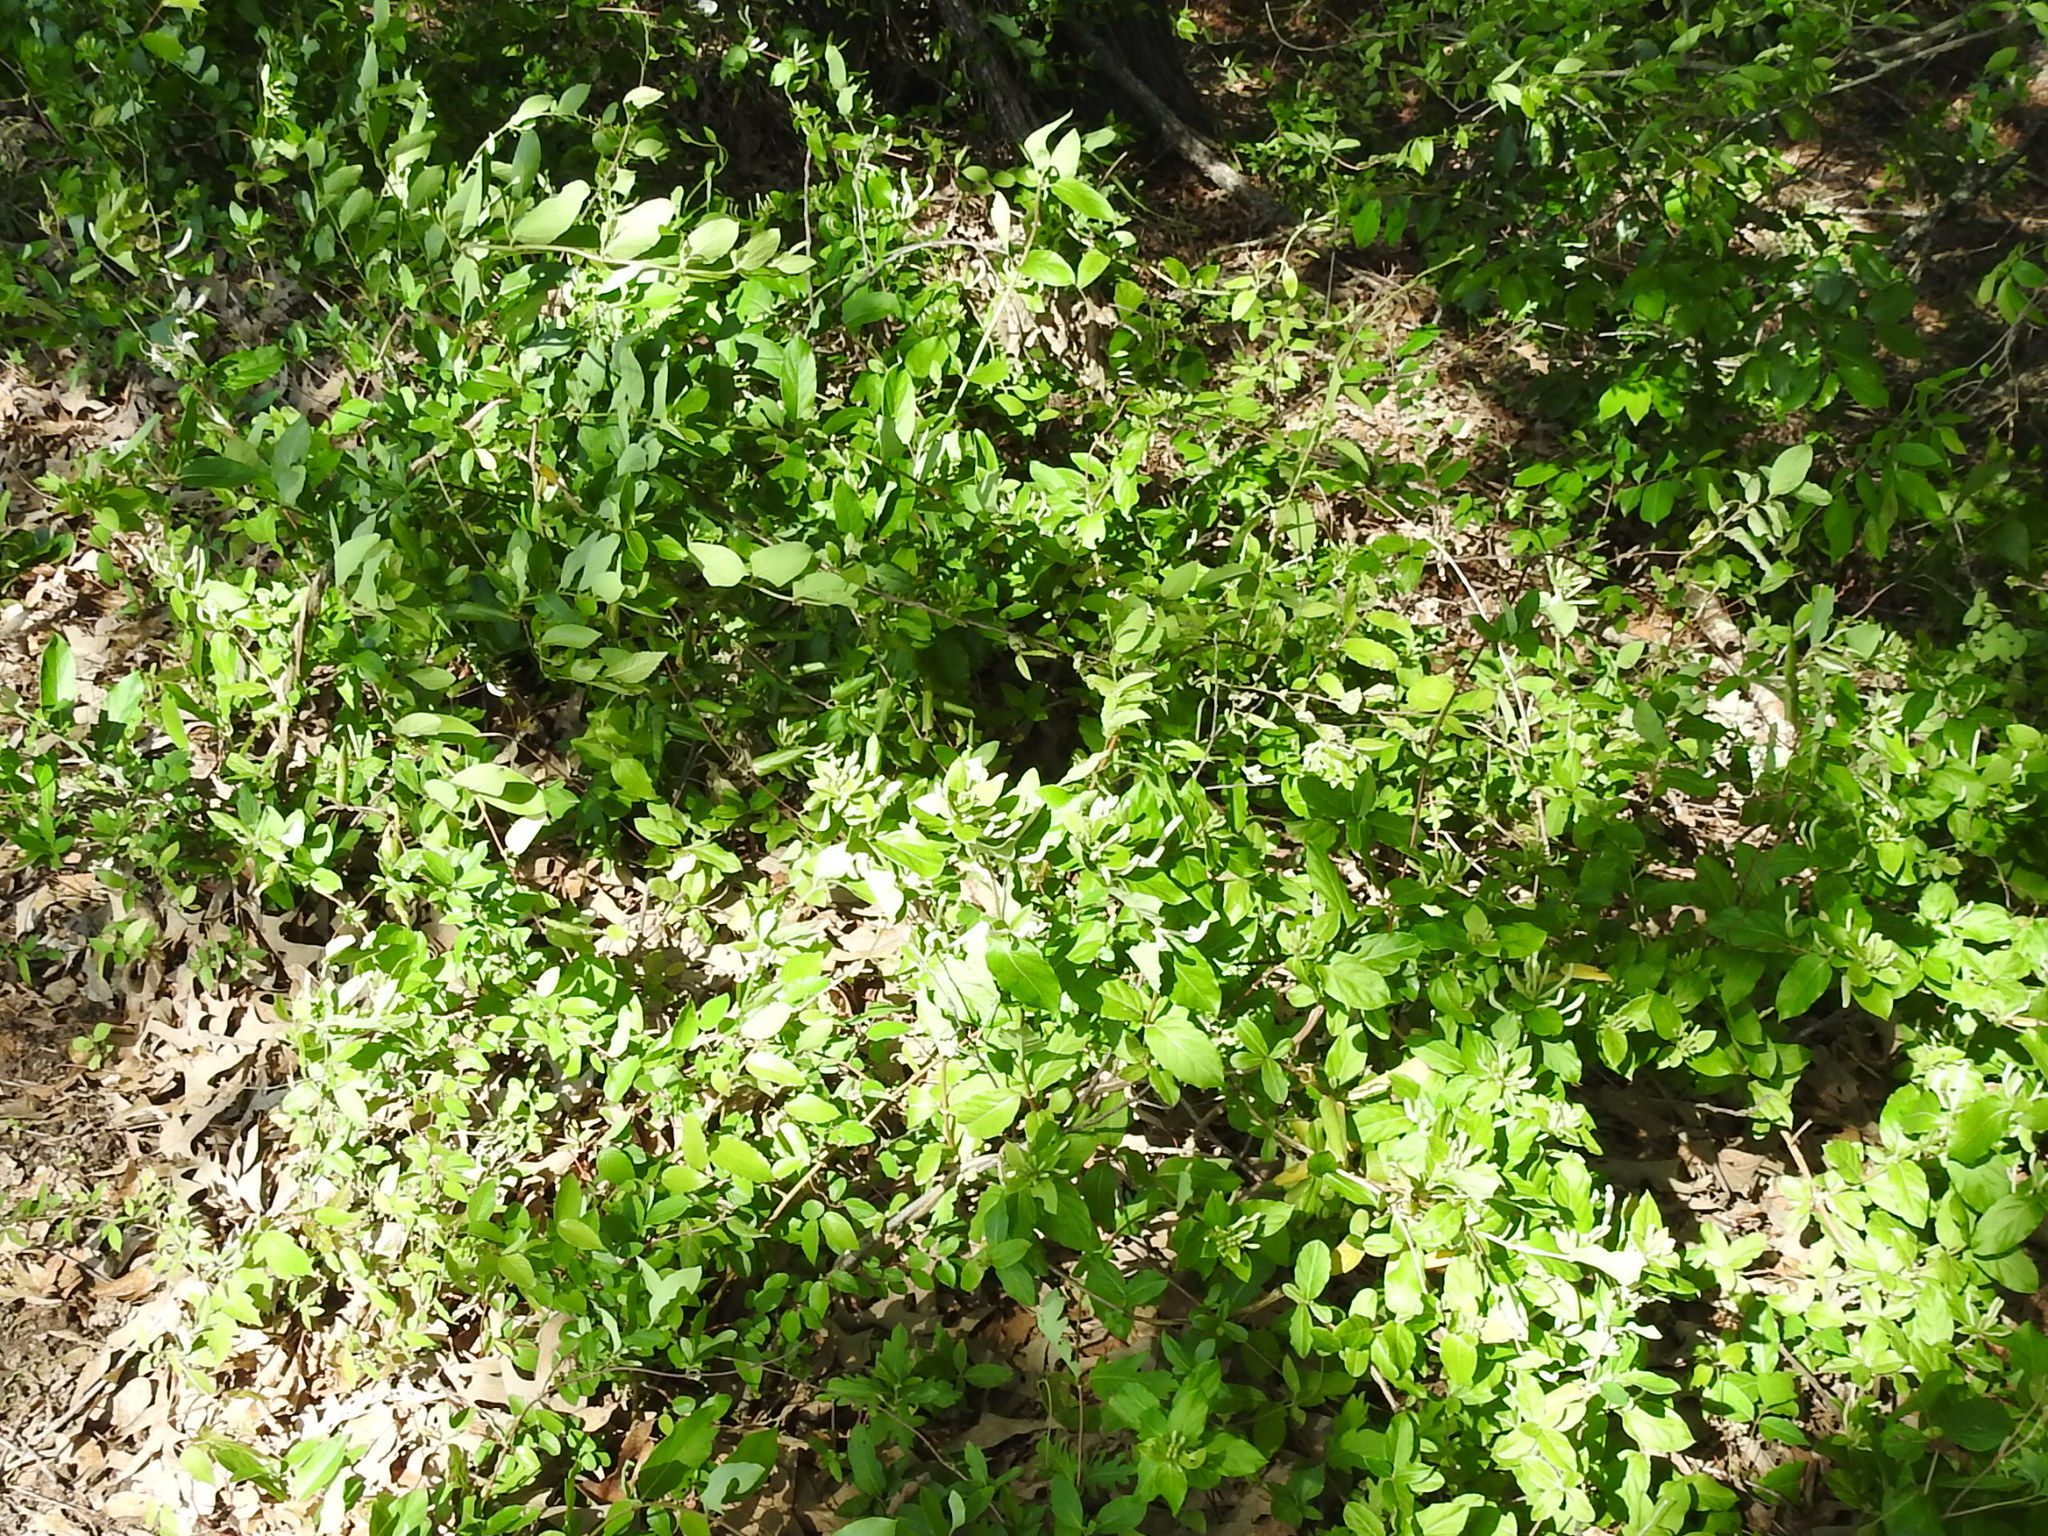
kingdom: Plantae
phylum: Tracheophyta
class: Magnoliopsida
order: Dipsacales
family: Caprifoliaceae
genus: Lonicera
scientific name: Lonicera japonica
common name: Japanese honeysuckle
